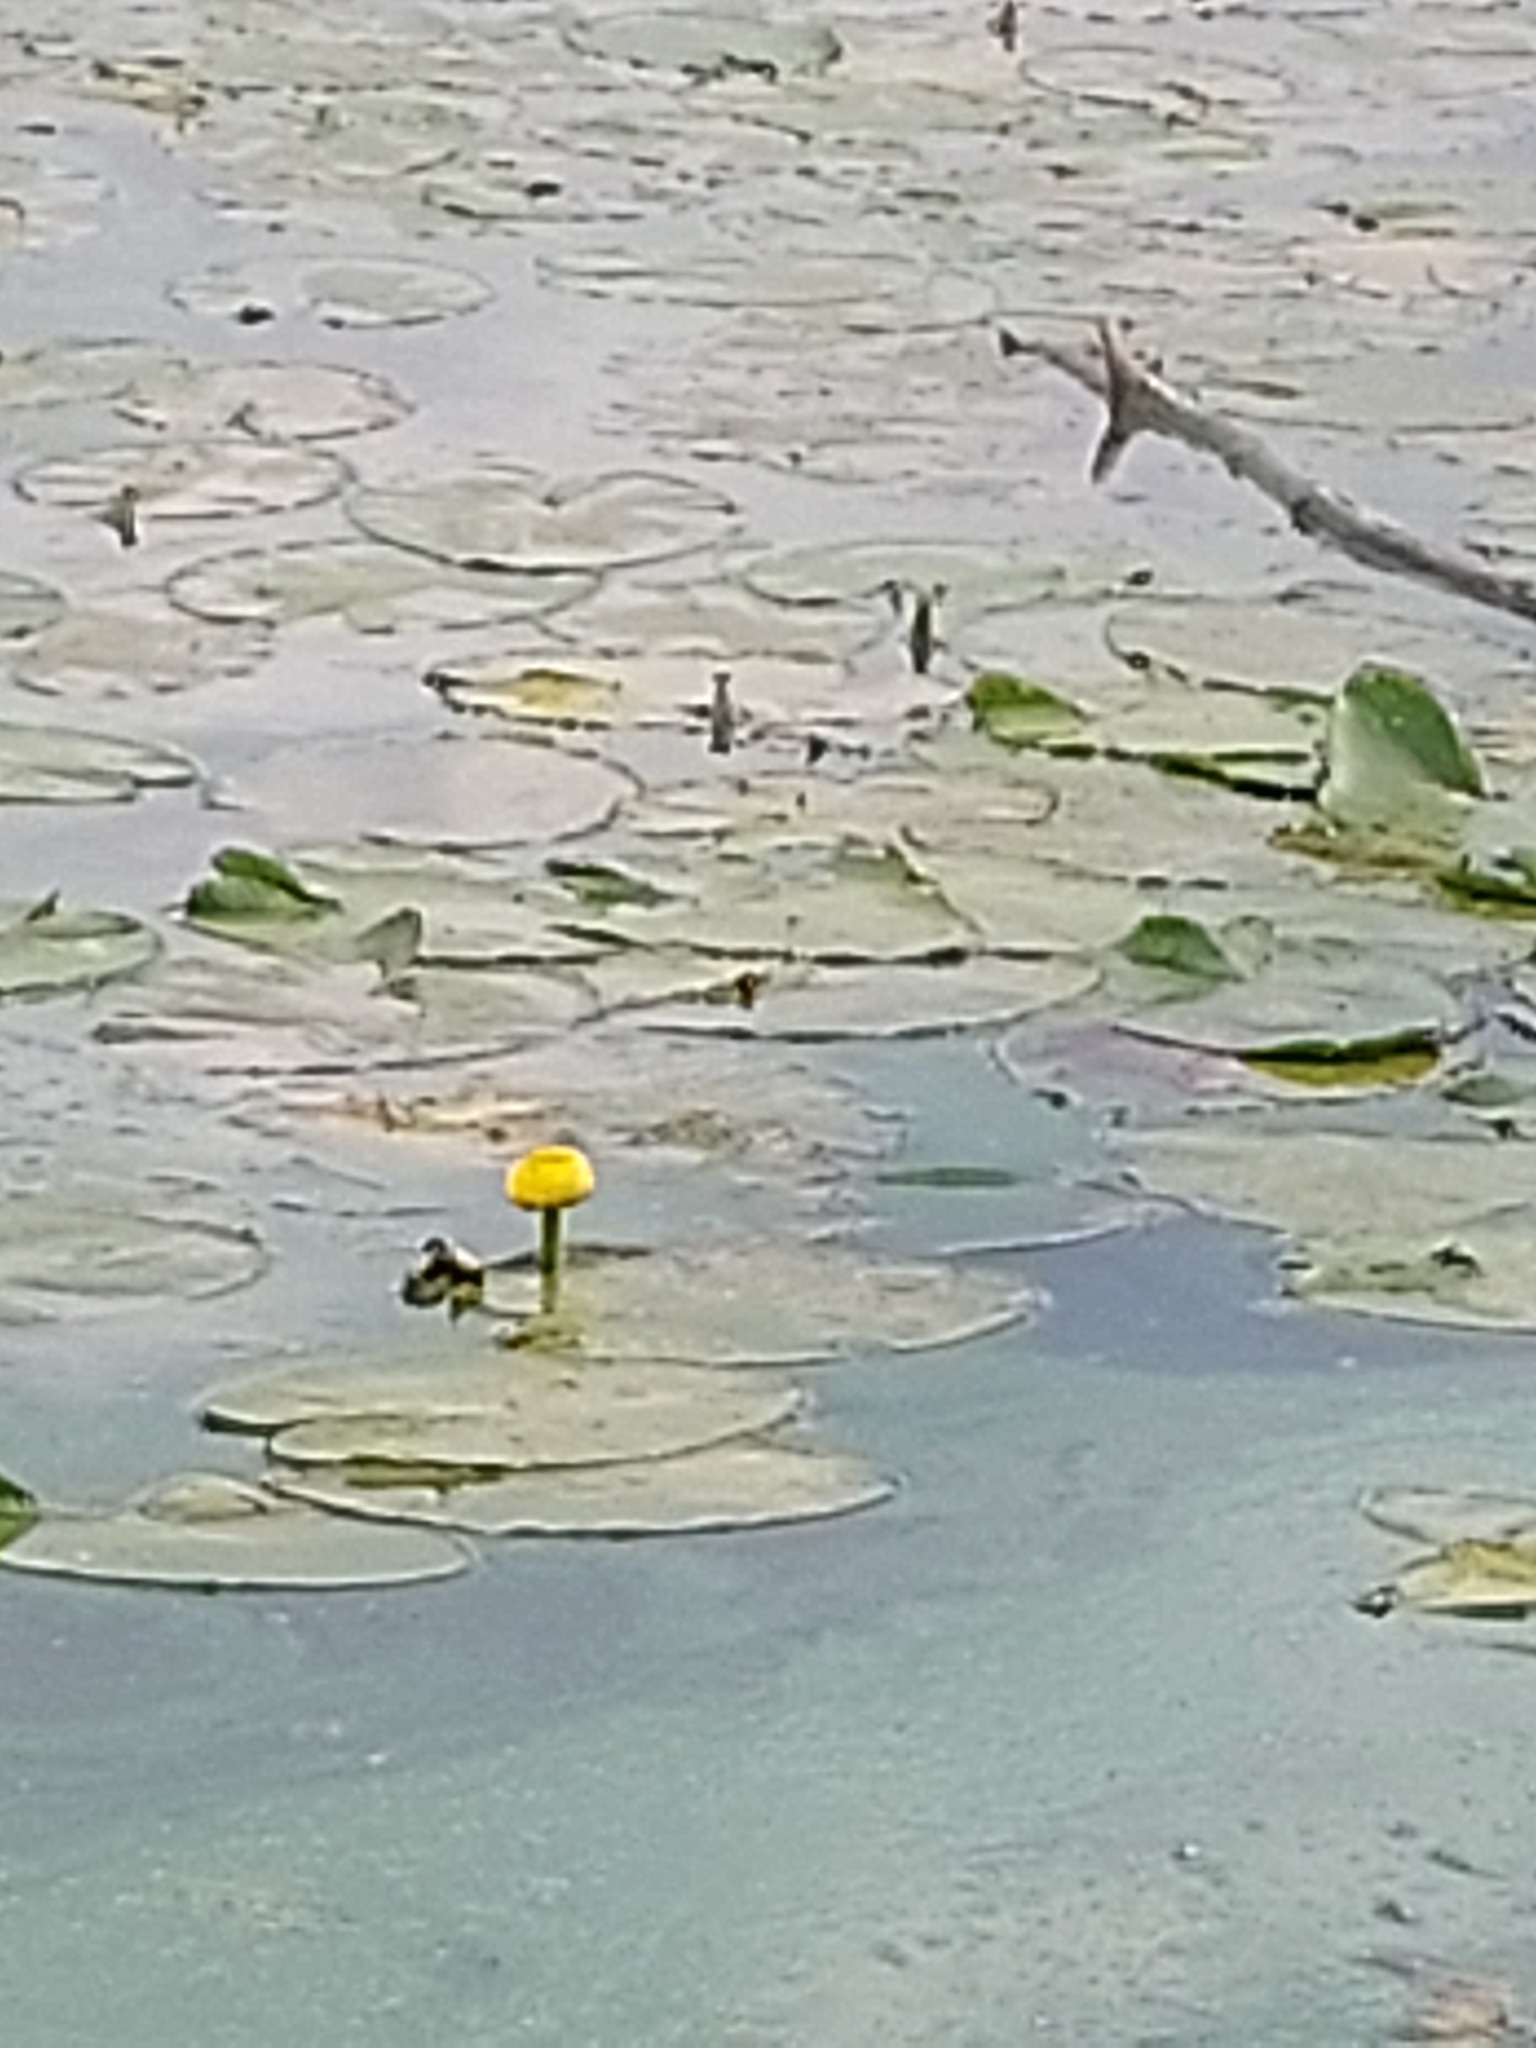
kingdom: Plantae
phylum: Tracheophyta
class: Magnoliopsida
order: Nymphaeales
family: Nymphaeaceae
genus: Nuphar
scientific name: Nuphar lutea
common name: Yellow water-lily
